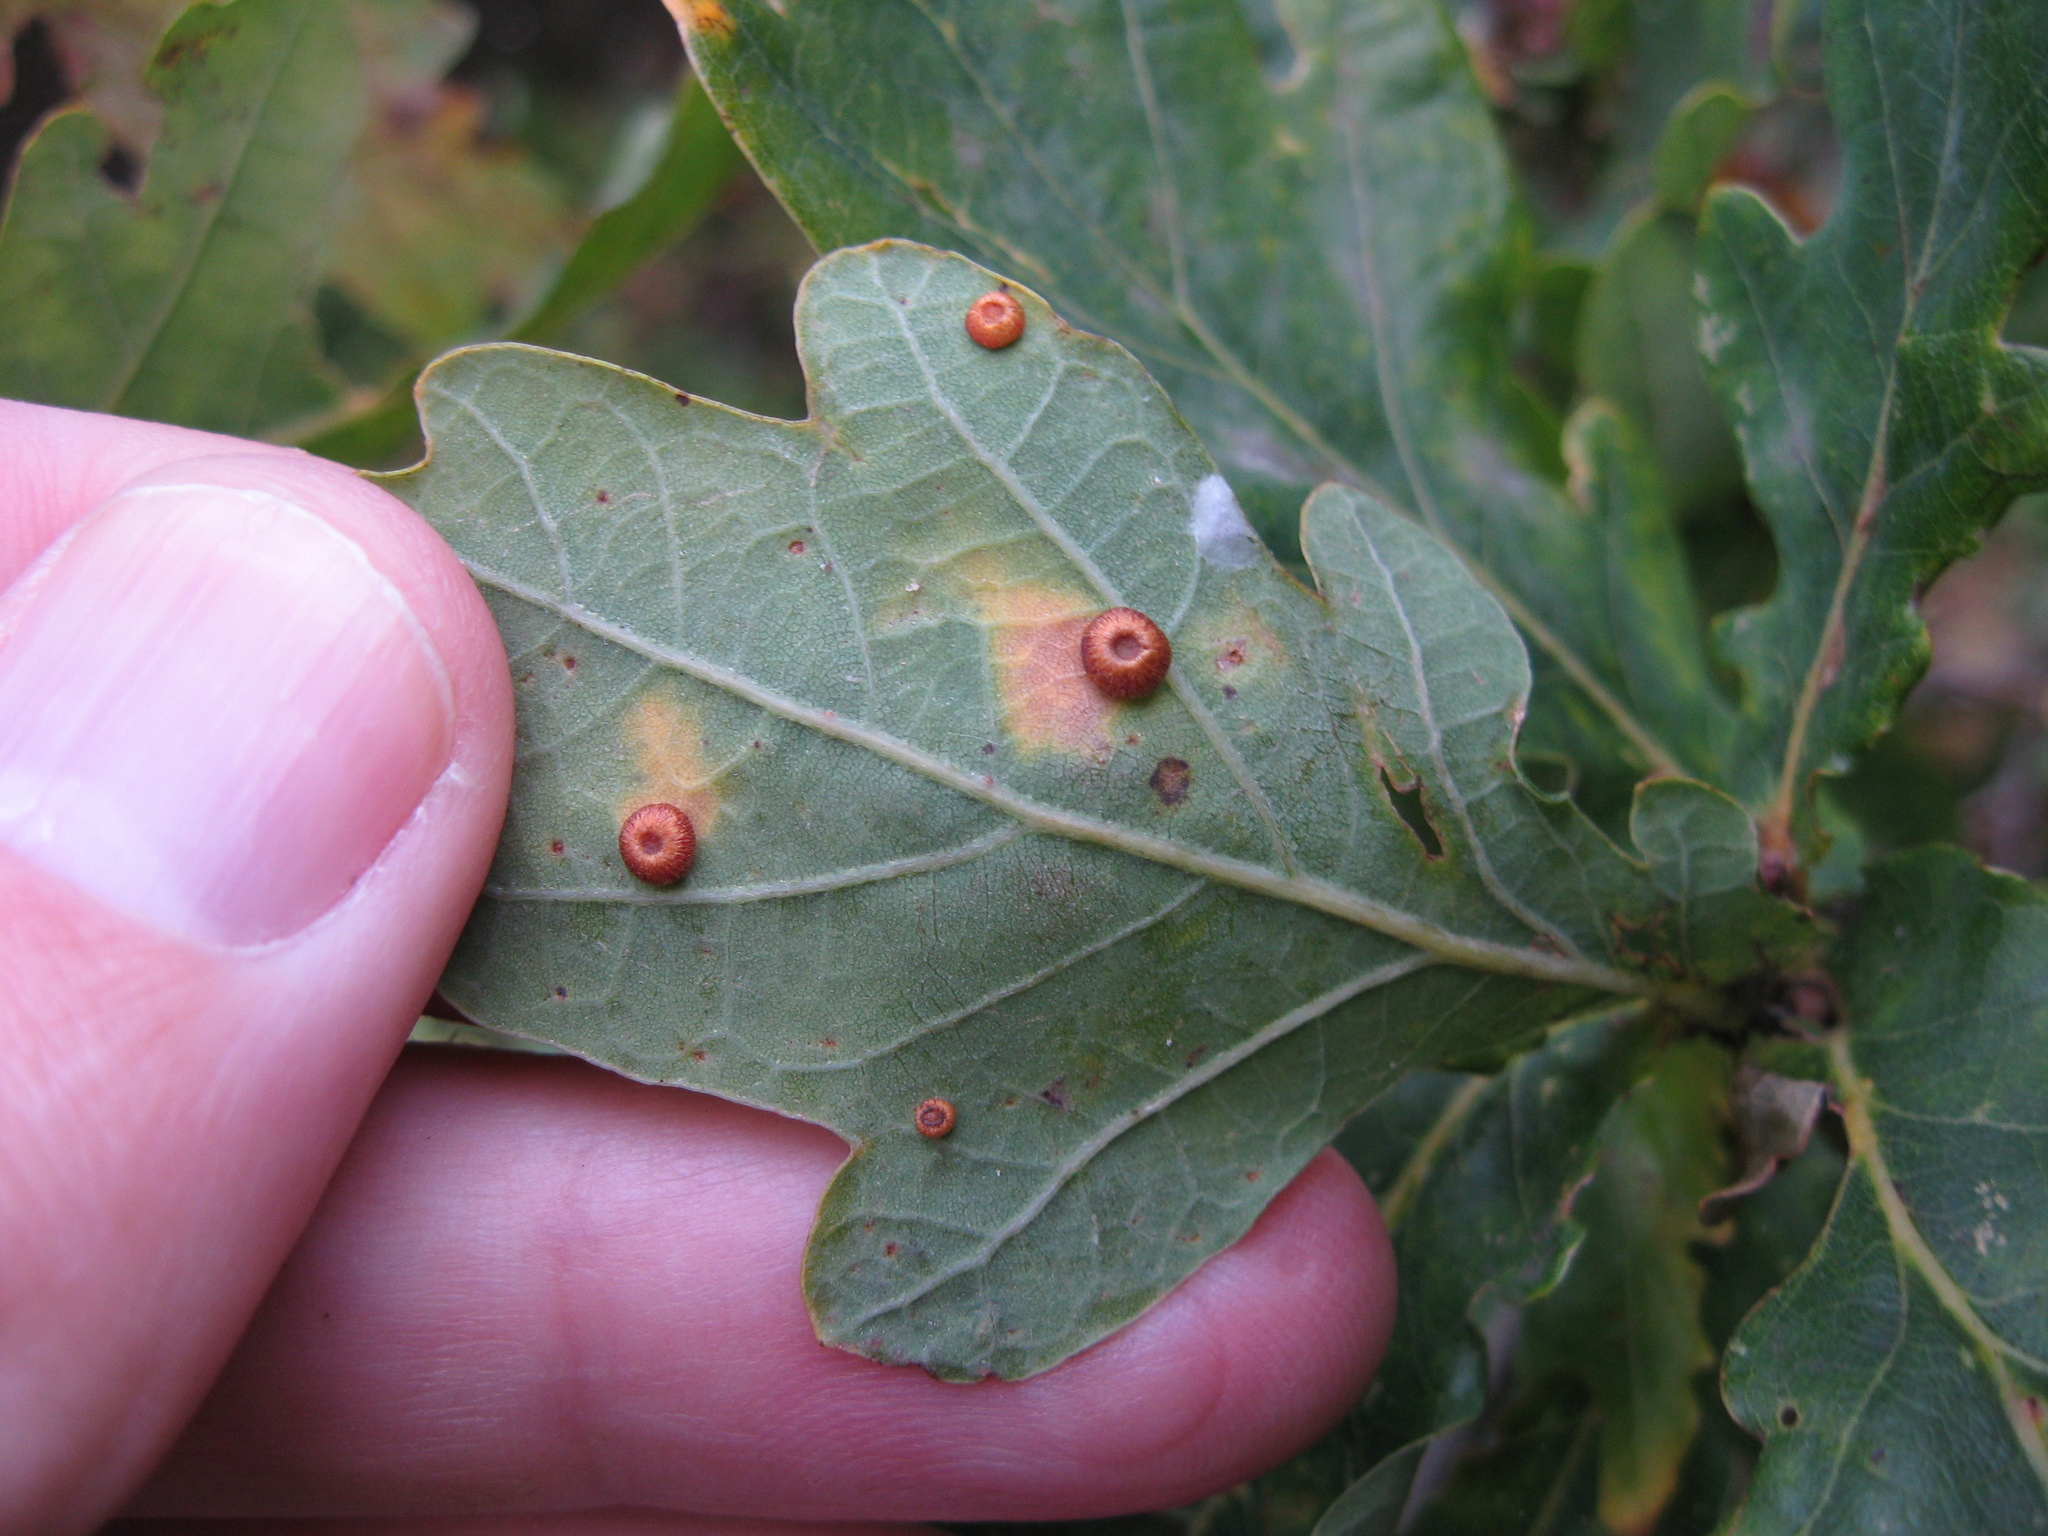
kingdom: Animalia
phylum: Arthropoda
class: Insecta
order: Hymenoptera
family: Cynipidae
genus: Neuroterus
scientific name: Neuroterus numismalis
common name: Silk-button spangle gall
